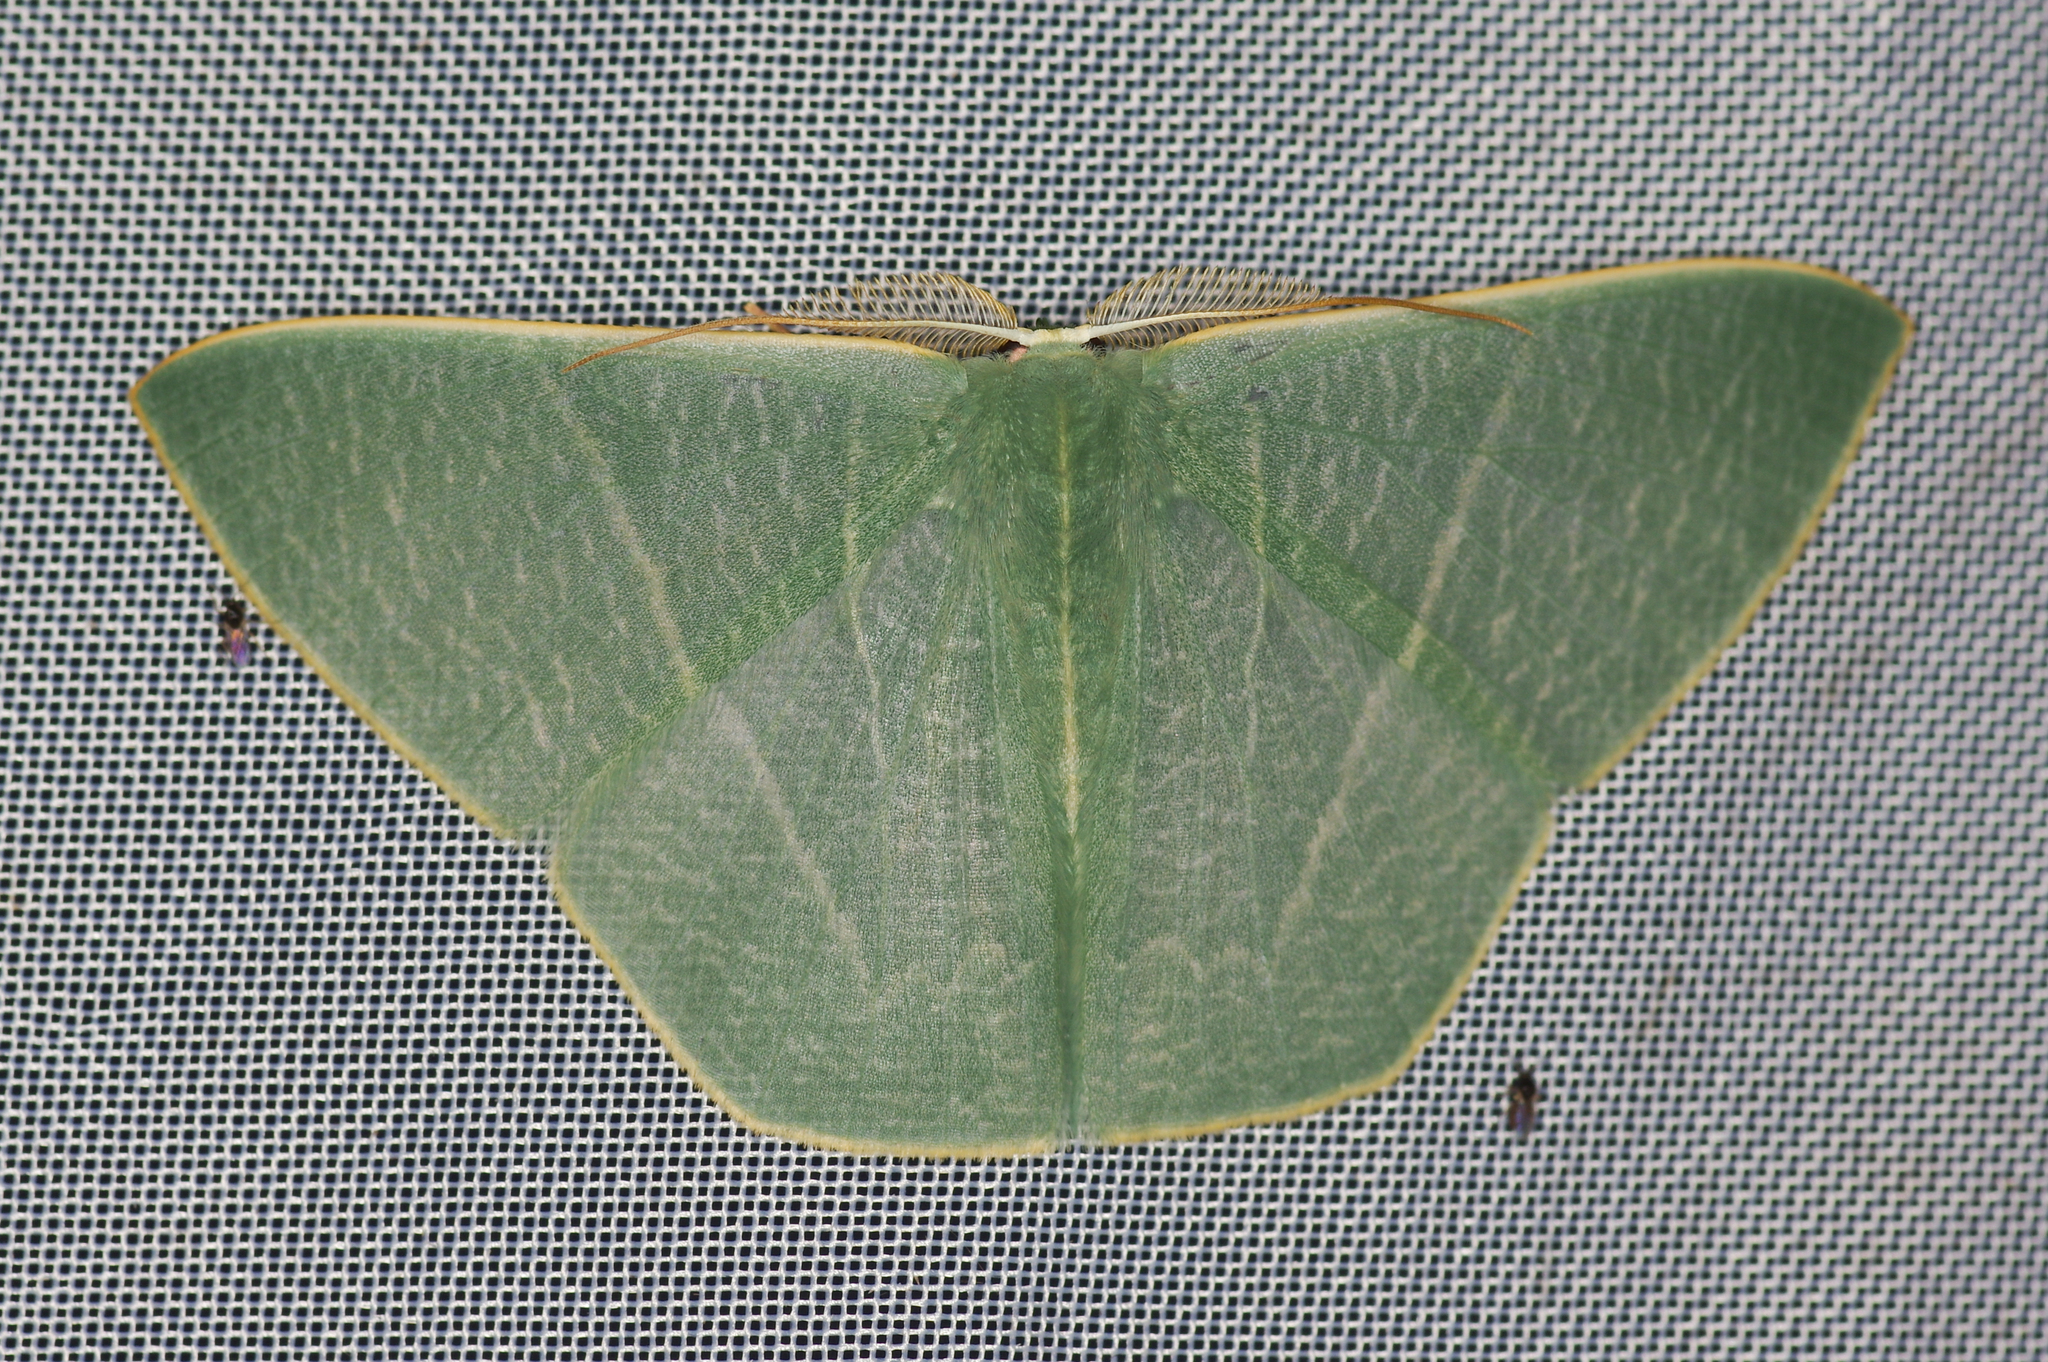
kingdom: Animalia
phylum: Arthropoda
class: Insecta
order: Lepidoptera
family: Geometridae
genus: Thalassodes
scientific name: Thalassodes pilaria
